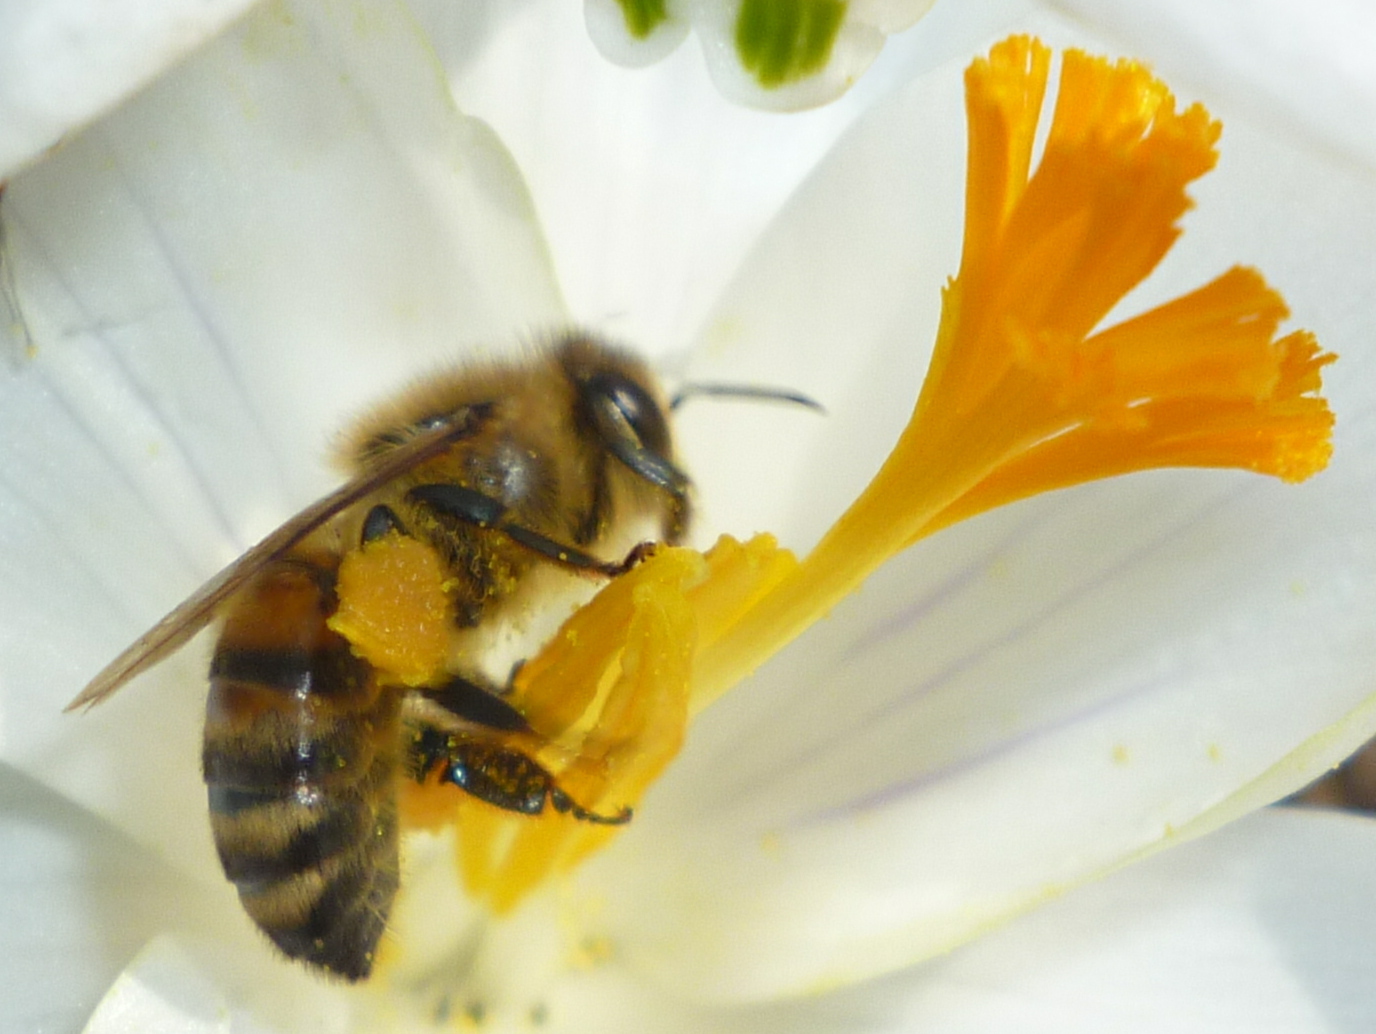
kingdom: Animalia
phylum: Arthropoda
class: Insecta
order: Hymenoptera
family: Apidae
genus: Apis
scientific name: Apis mellifera
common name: Honey bee
